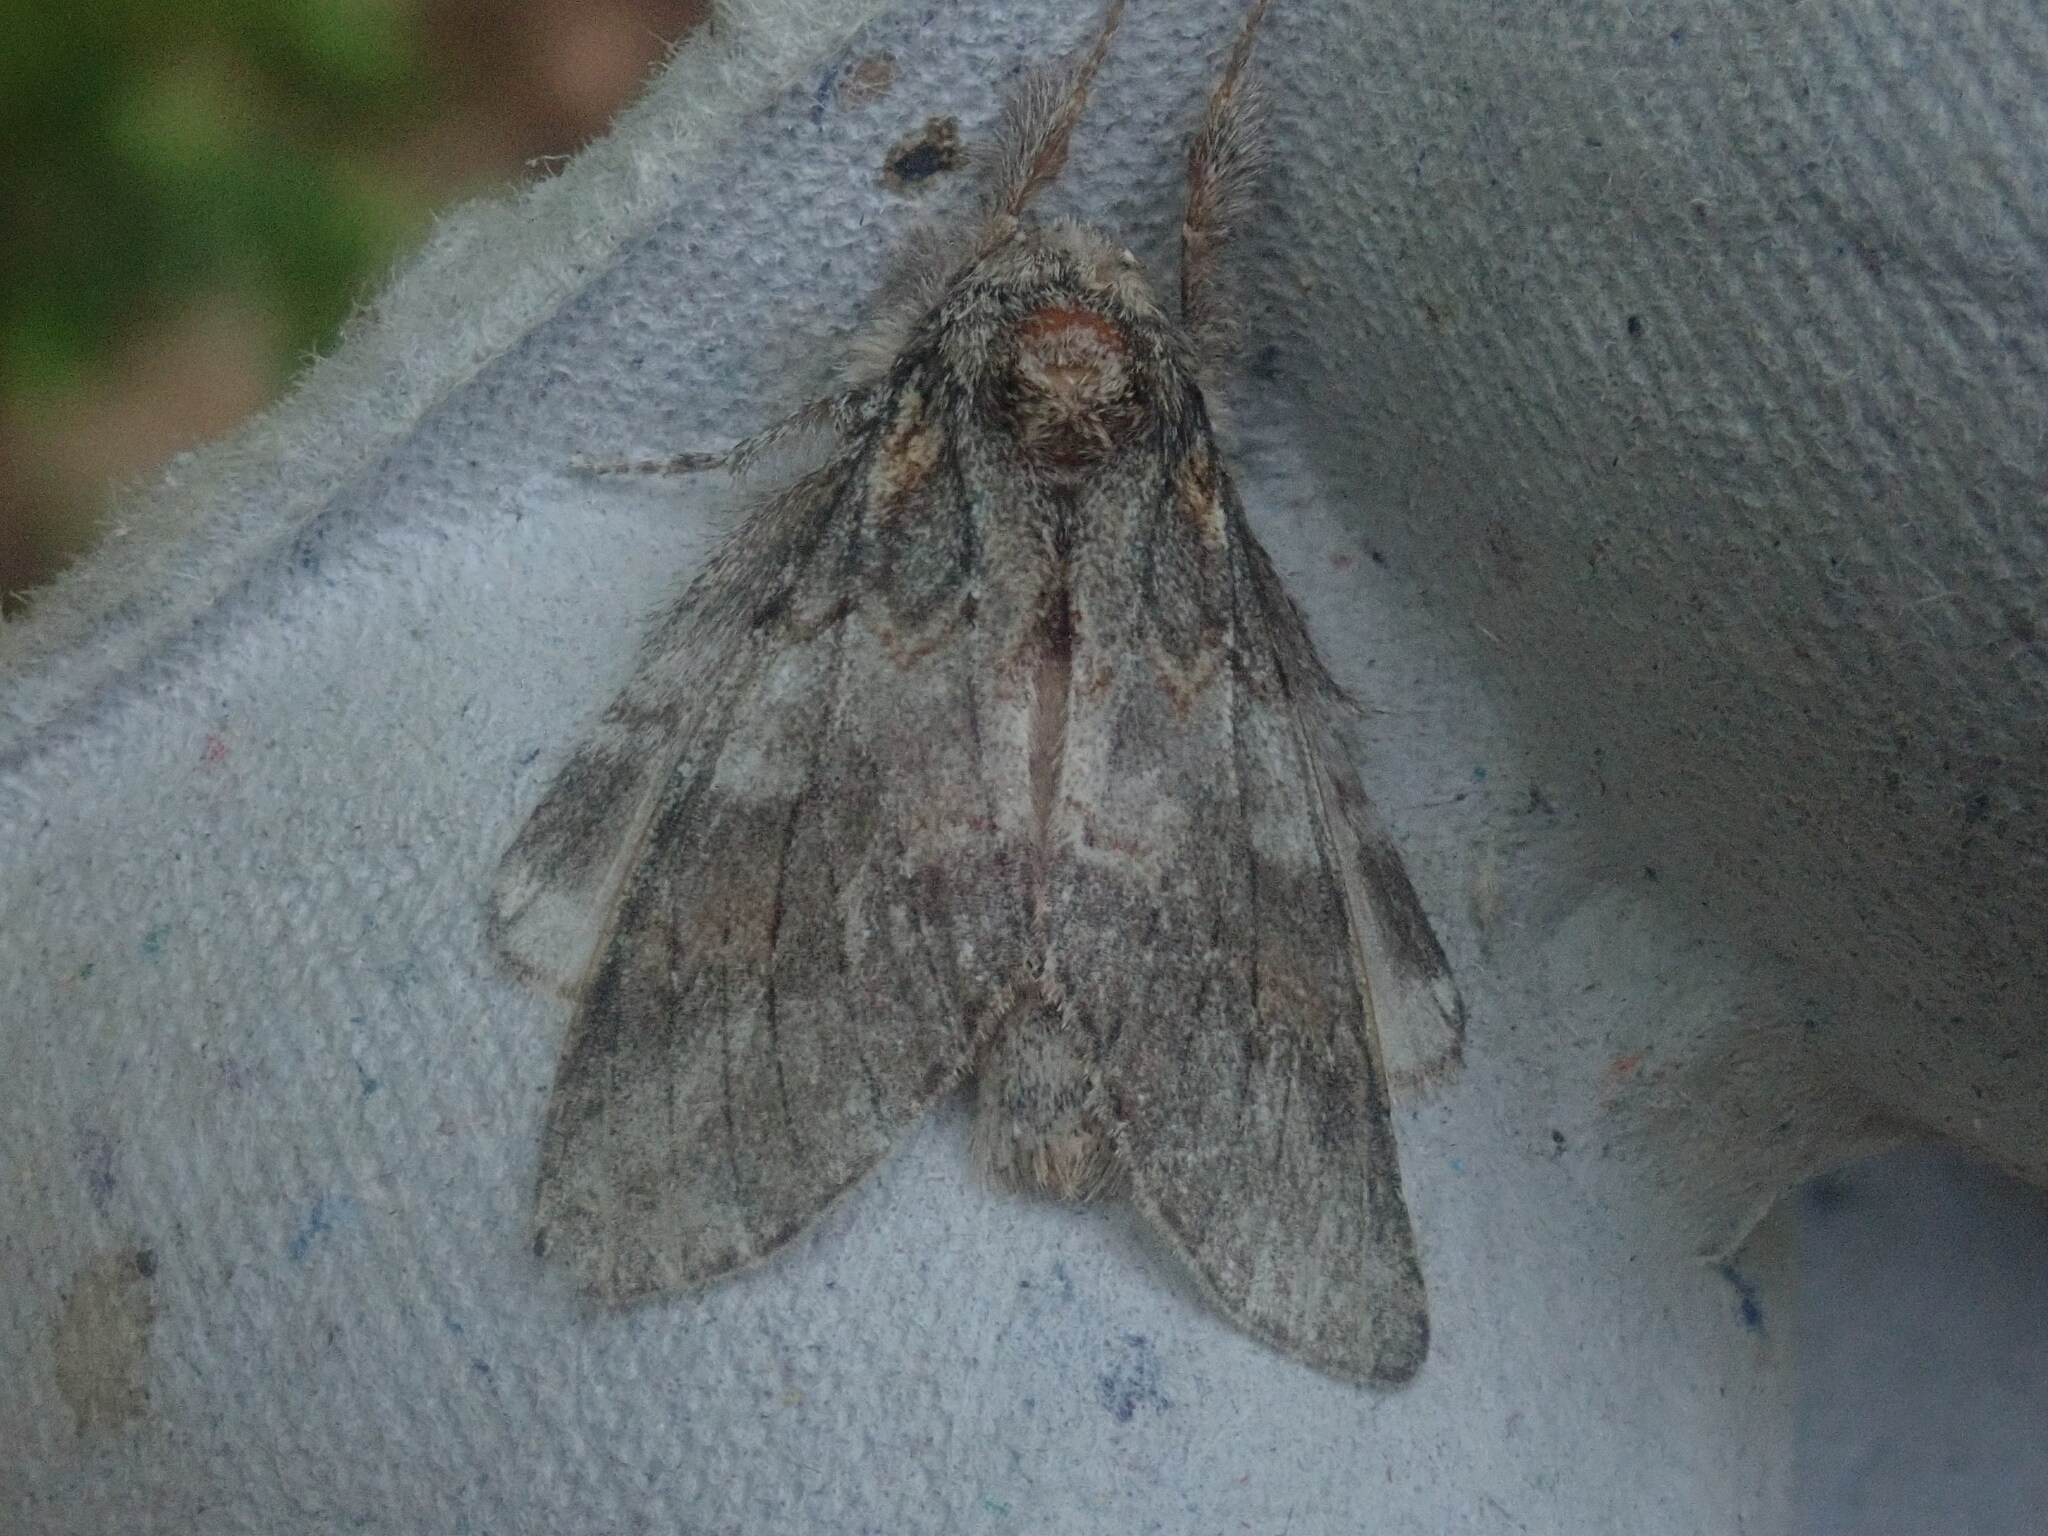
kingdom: Animalia
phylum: Arthropoda
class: Insecta
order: Lepidoptera
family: Notodontidae
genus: Peridea
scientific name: Peridea angulosa
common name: Angulose prominent
